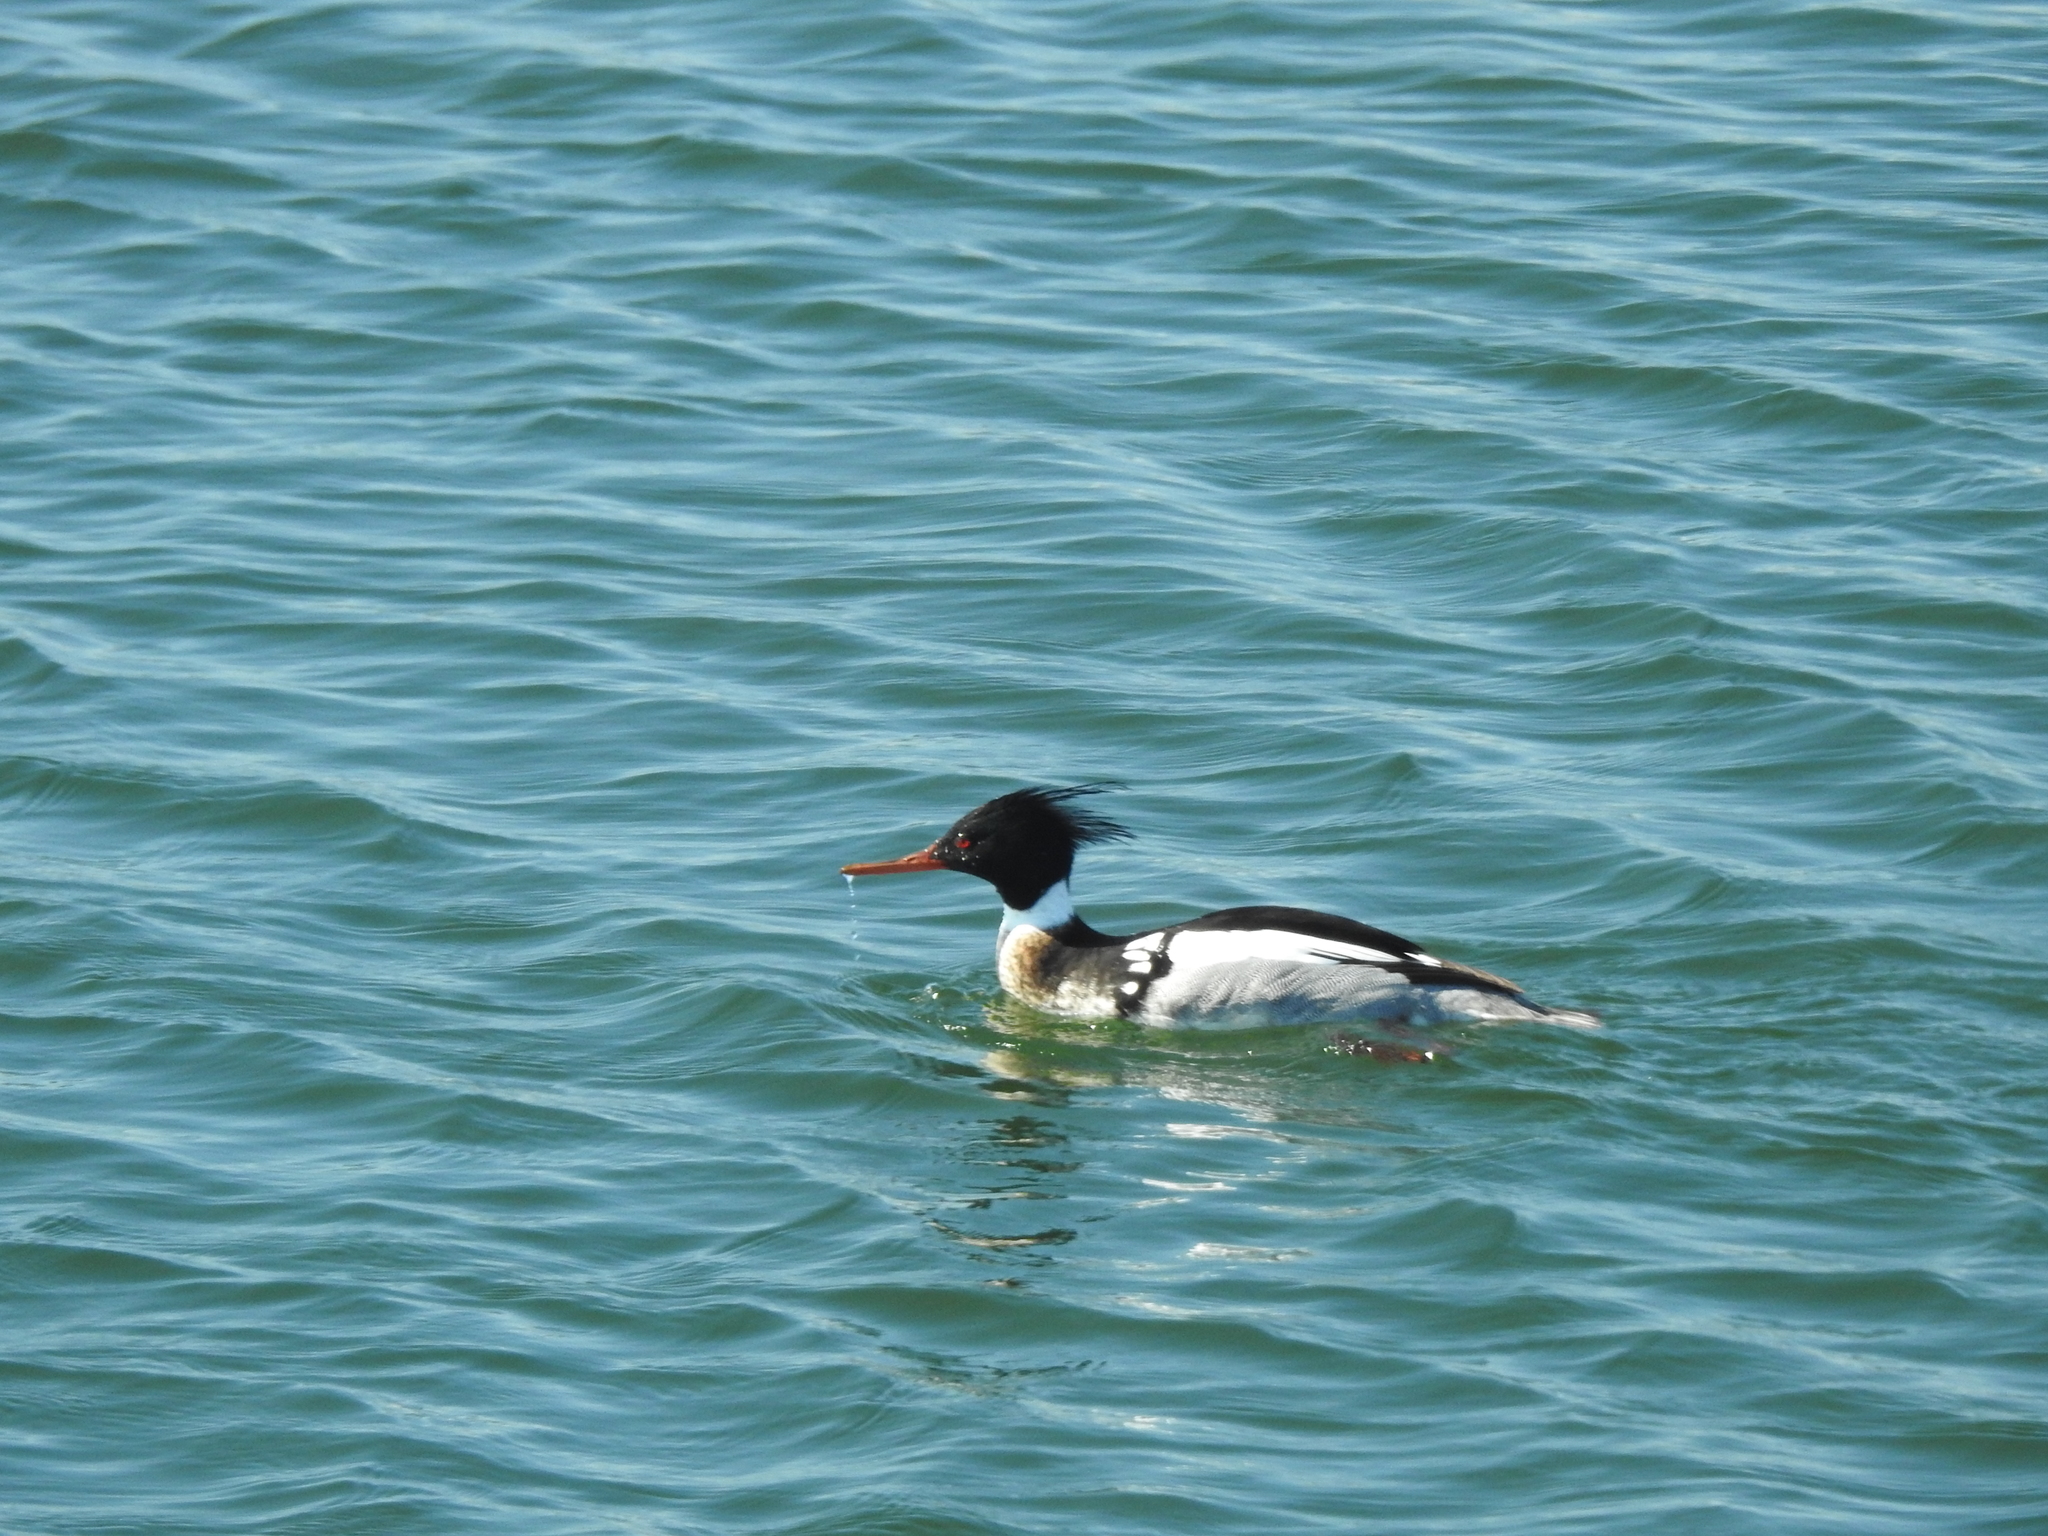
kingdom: Animalia
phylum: Chordata
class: Aves
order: Anseriformes
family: Anatidae
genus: Mergus
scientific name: Mergus serrator
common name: Red-breasted merganser
